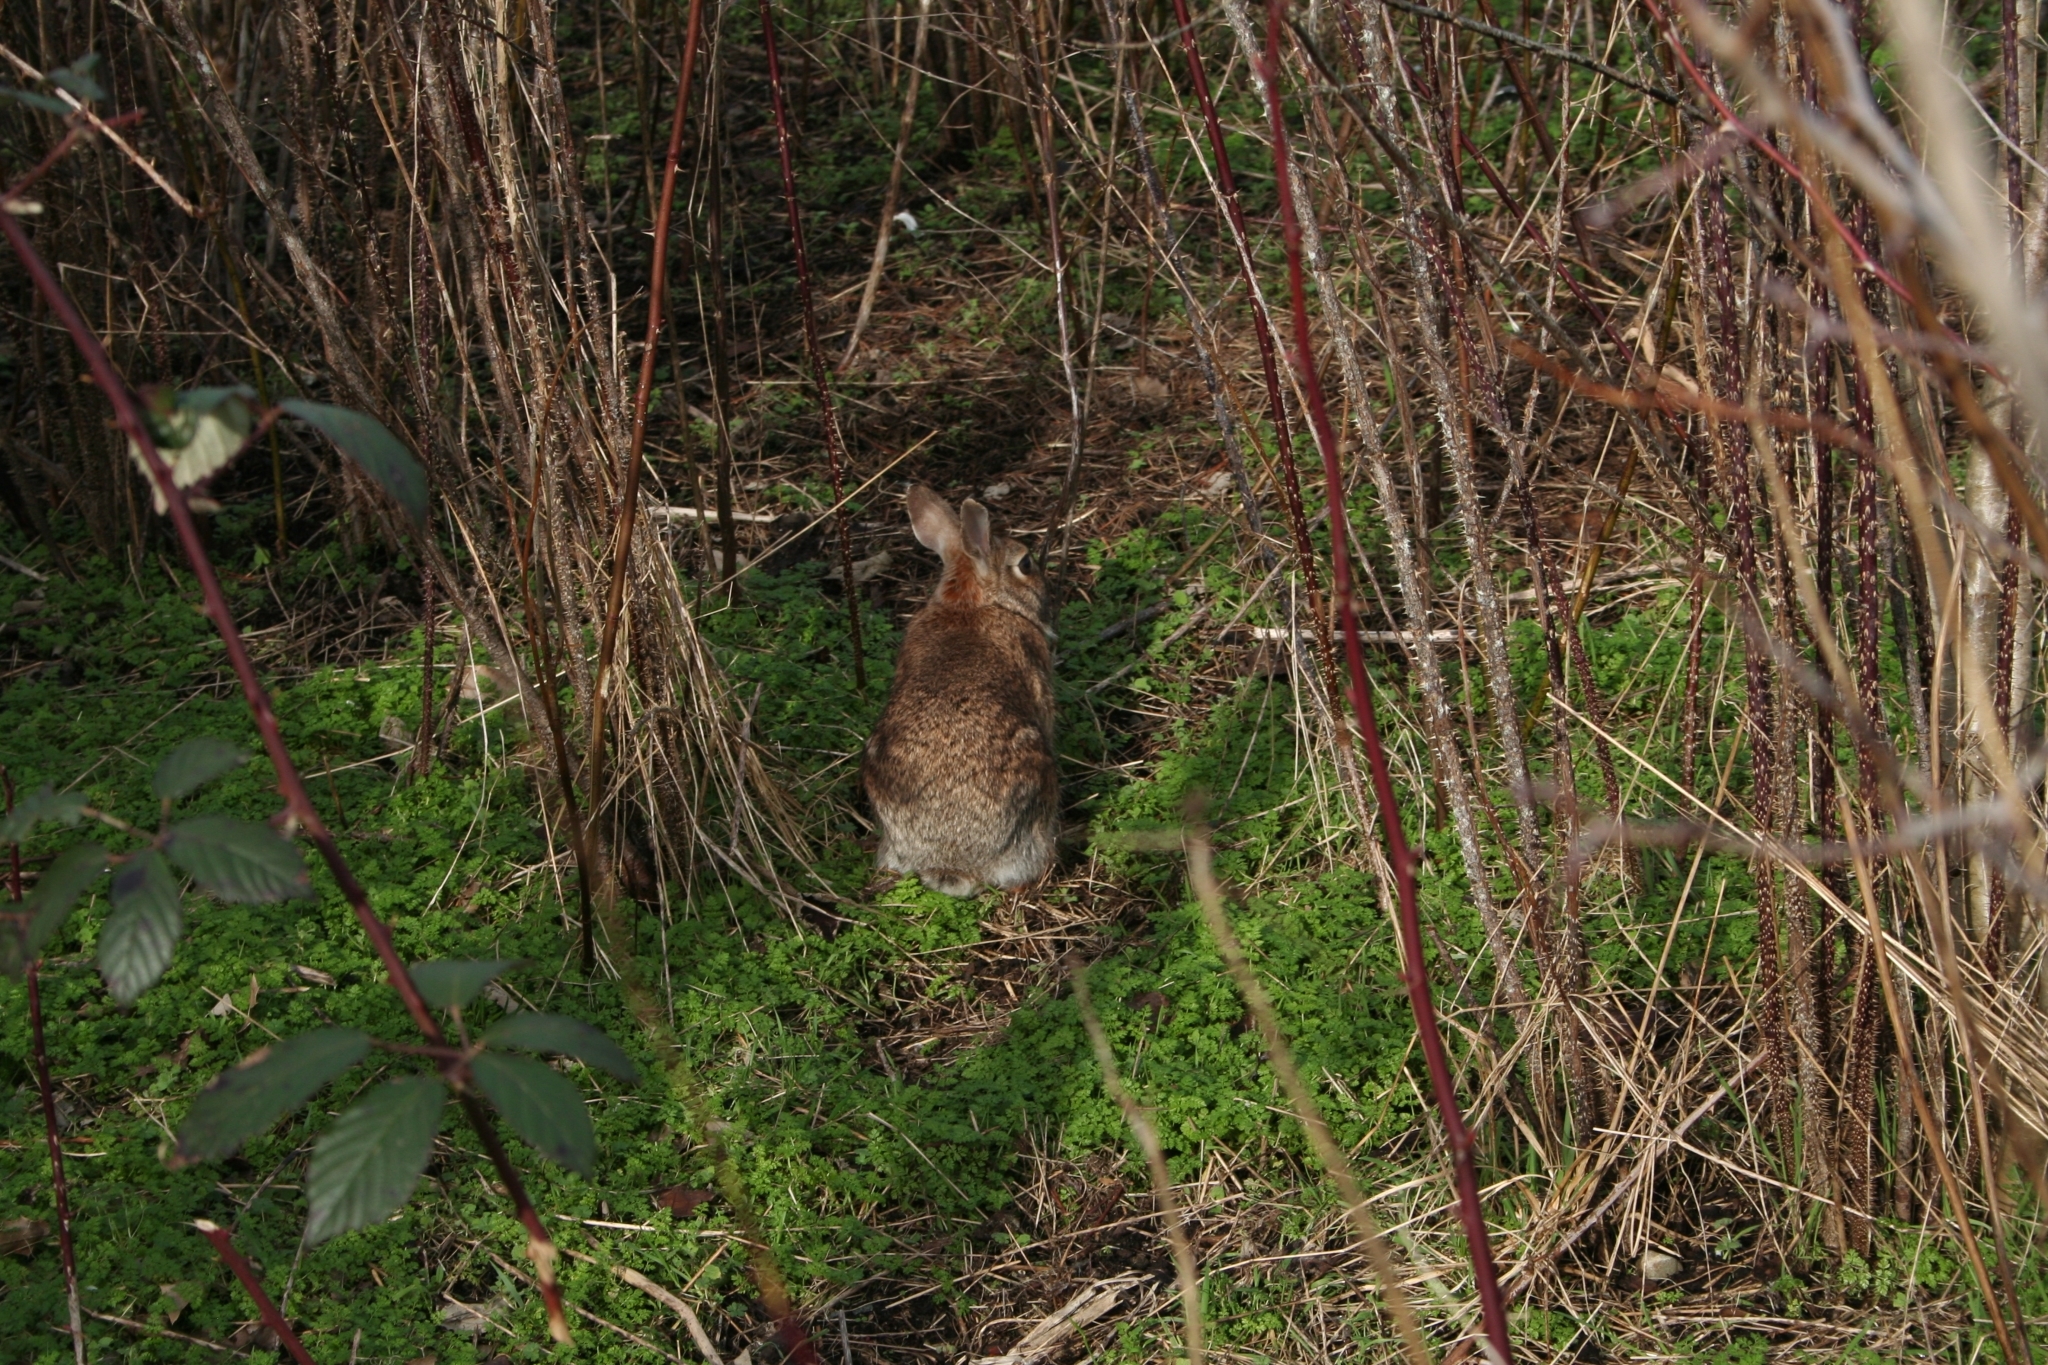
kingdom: Animalia
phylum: Chordata
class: Mammalia
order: Lagomorpha
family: Leporidae
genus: Sylvilagus
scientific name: Sylvilagus floridanus
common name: Eastern cottontail
